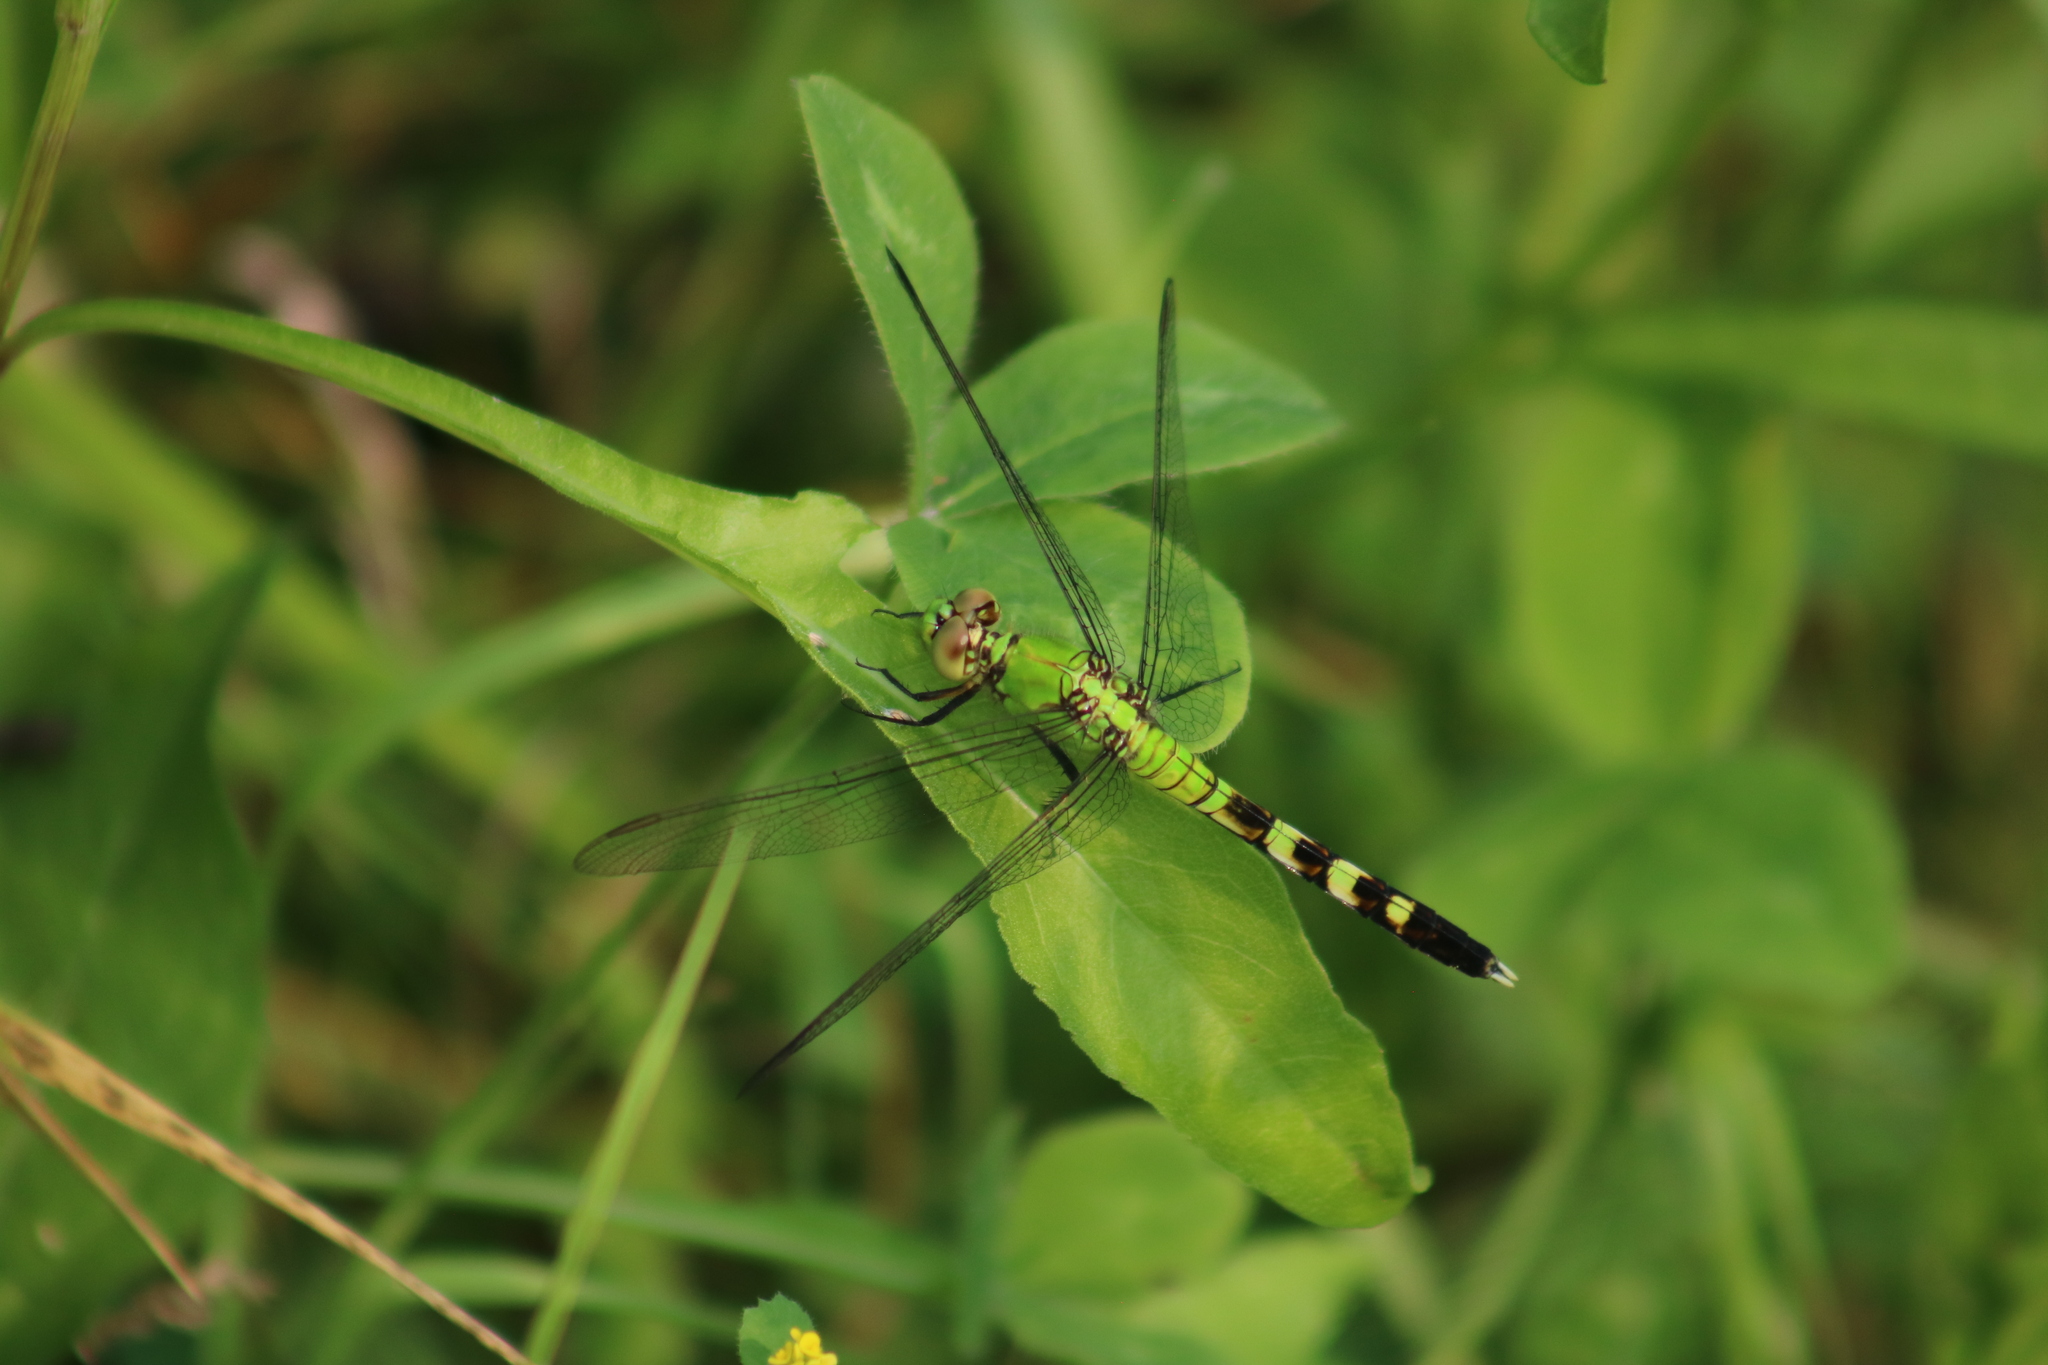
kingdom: Animalia
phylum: Arthropoda
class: Insecta
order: Odonata
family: Libellulidae
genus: Erythemis
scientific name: Erythemis simplicicollis
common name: Eastern pondhawk
